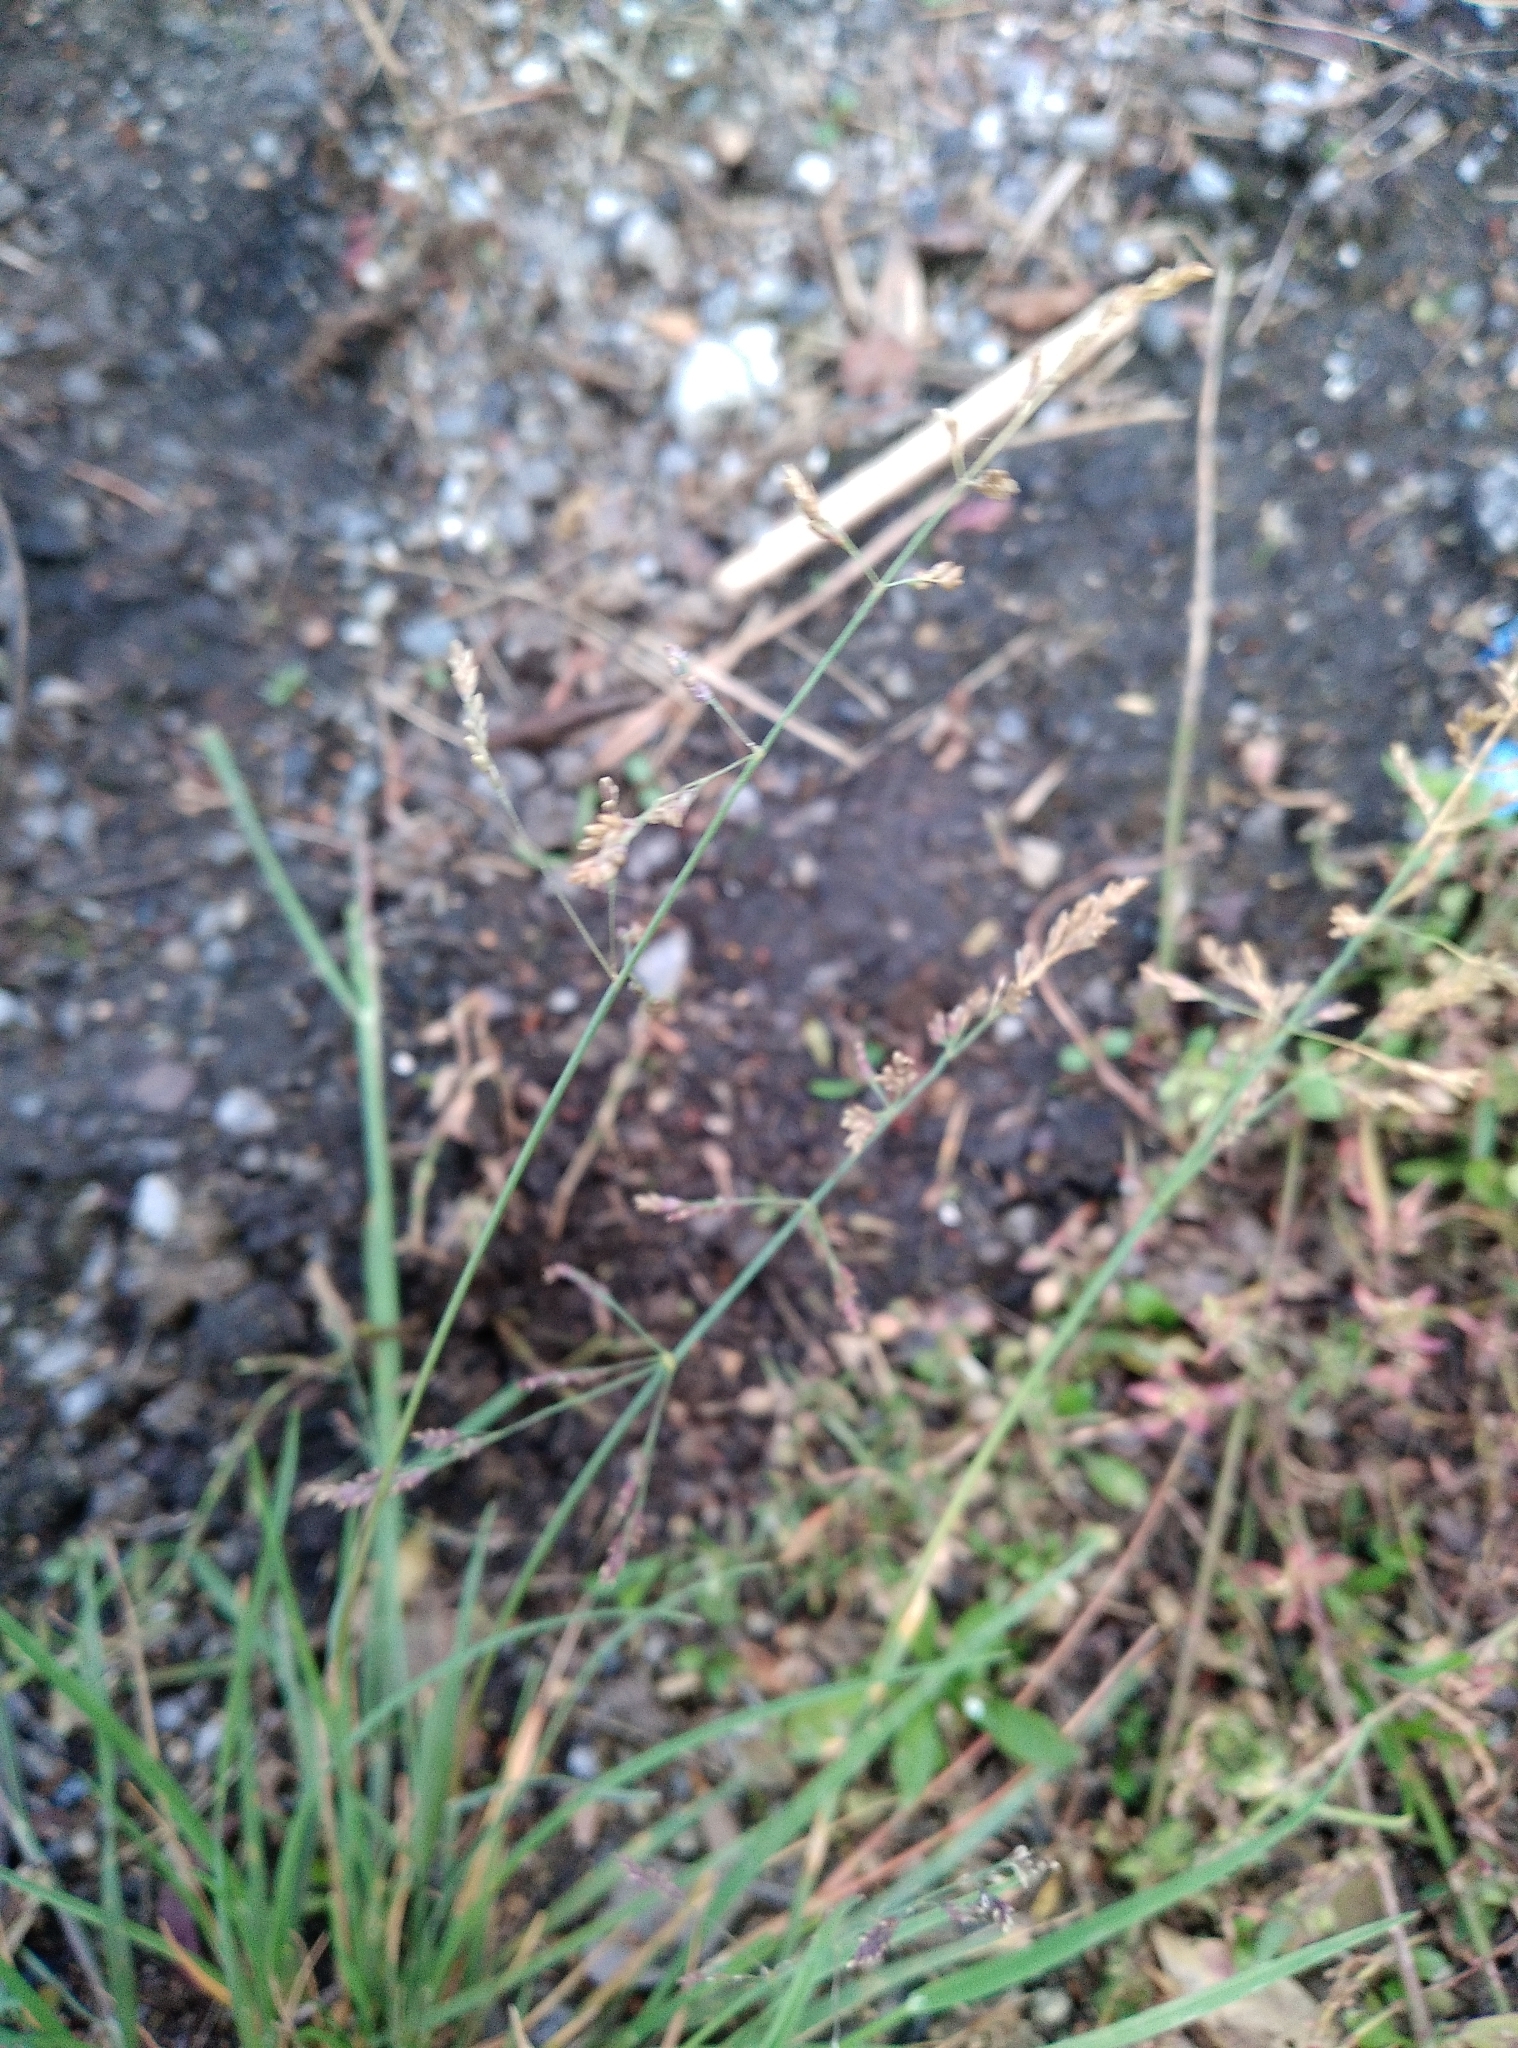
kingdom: Plantae
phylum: Tracheophyta
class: Liliopsida
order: Poales
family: Poaceae
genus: Puccinellia
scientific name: Puccinellia distans
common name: Weeping alkaligrass
